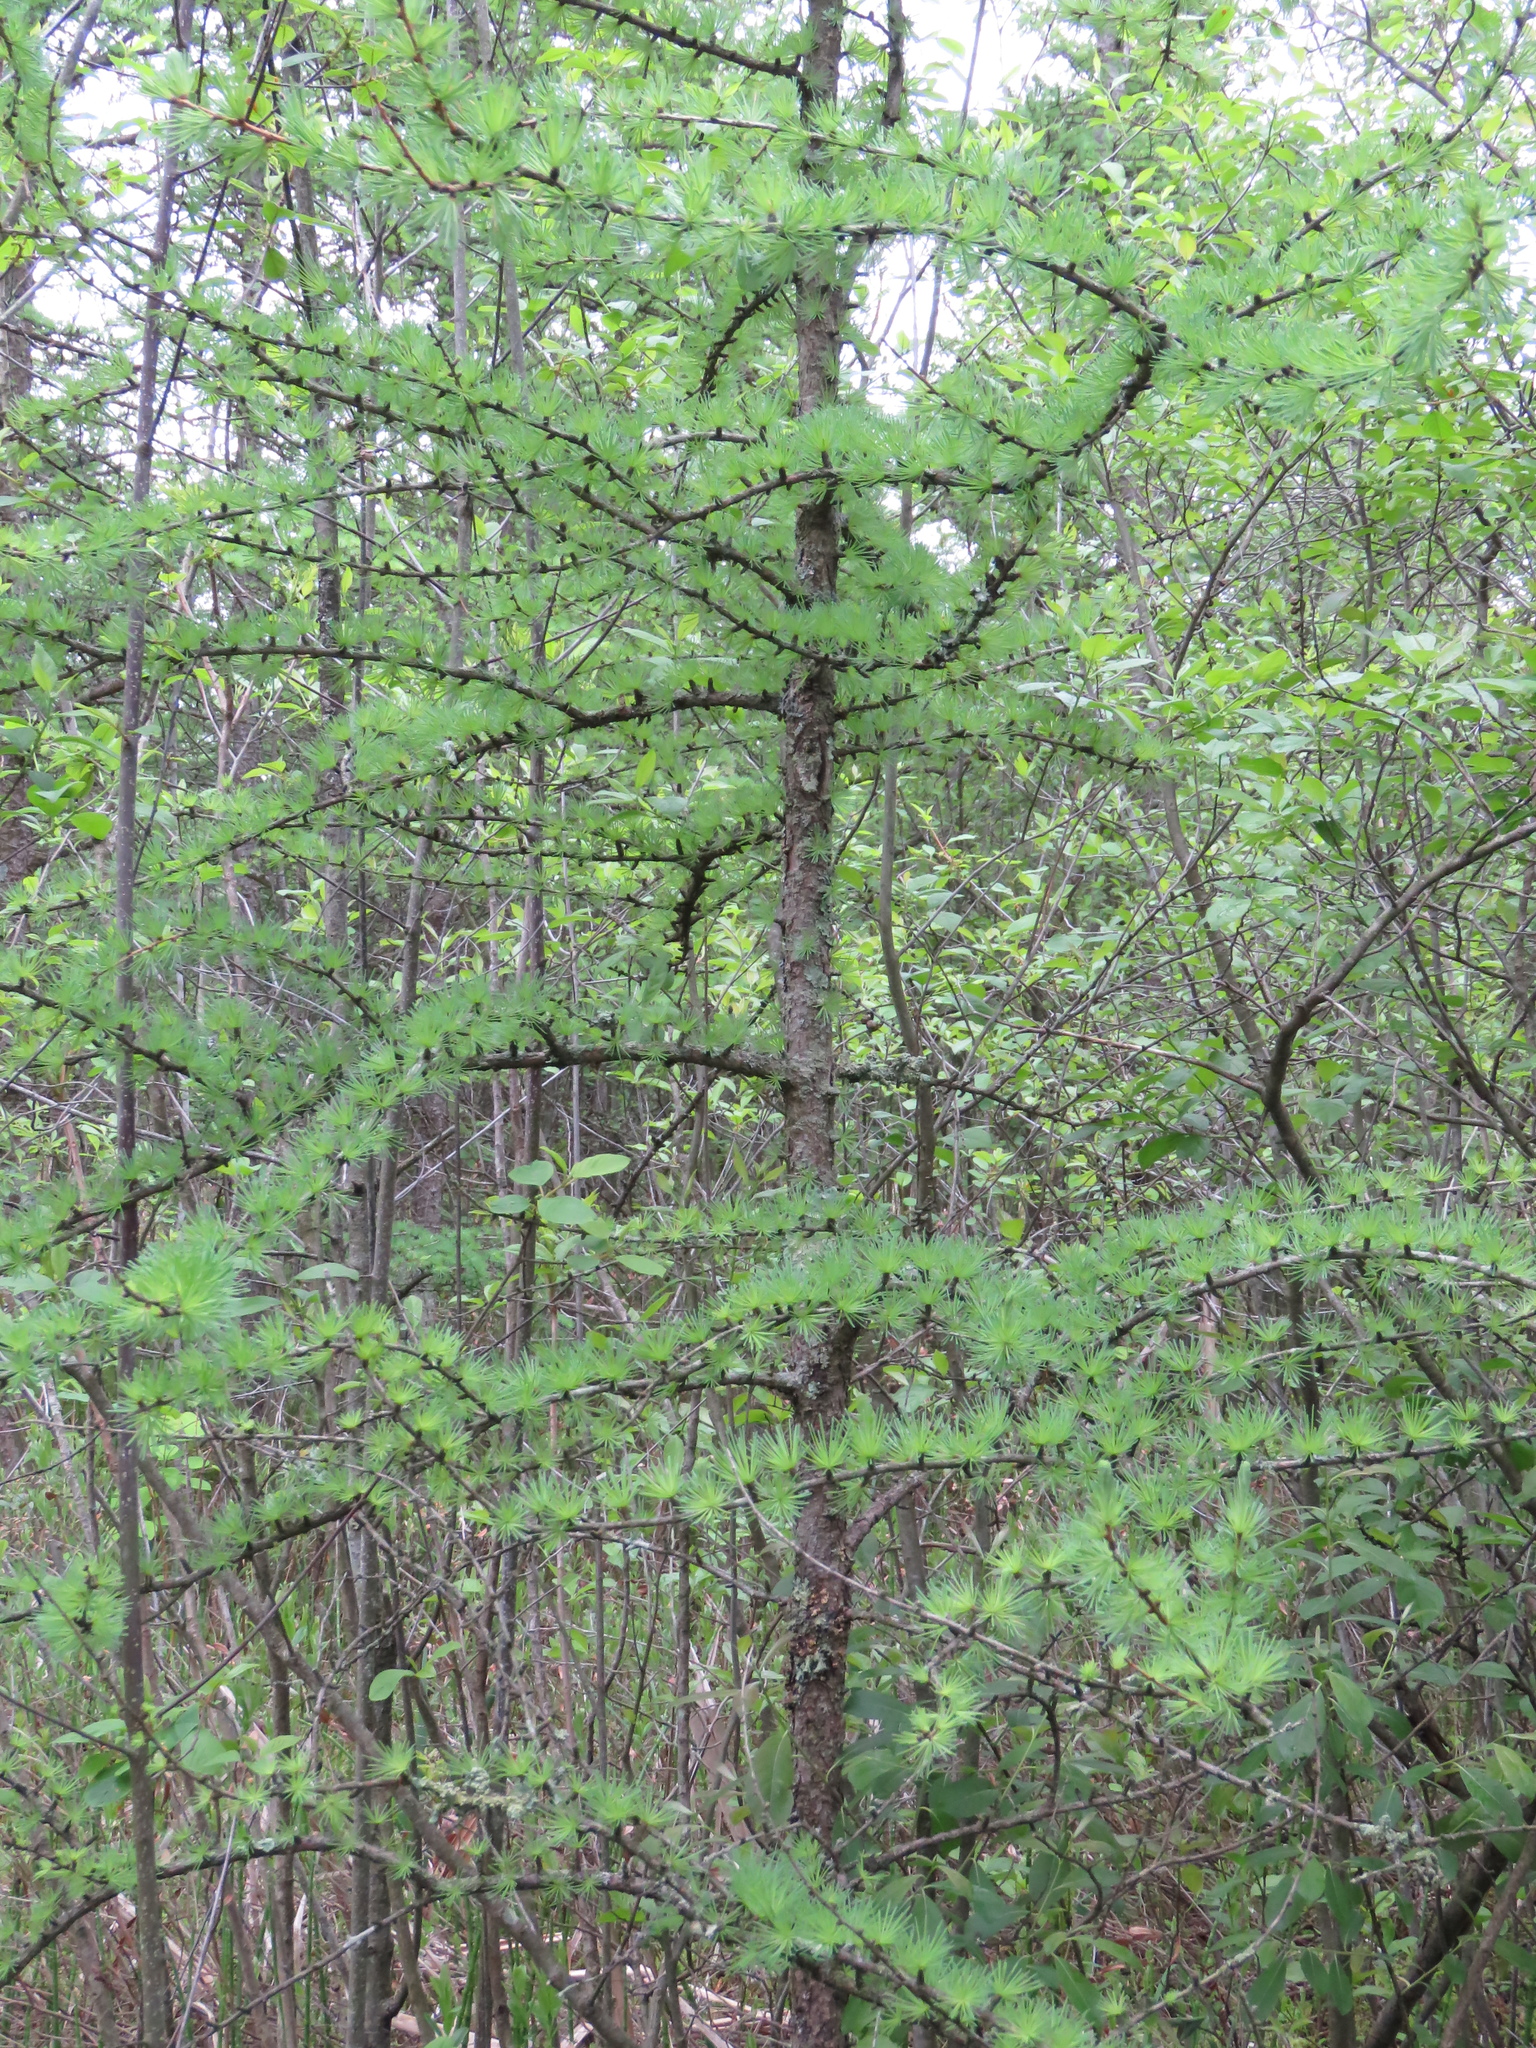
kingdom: Plantae
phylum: Tracheophyta
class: Pinopsida
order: Pinales
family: Pinaceae
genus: Larix
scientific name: Larix laricina
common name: American larch
